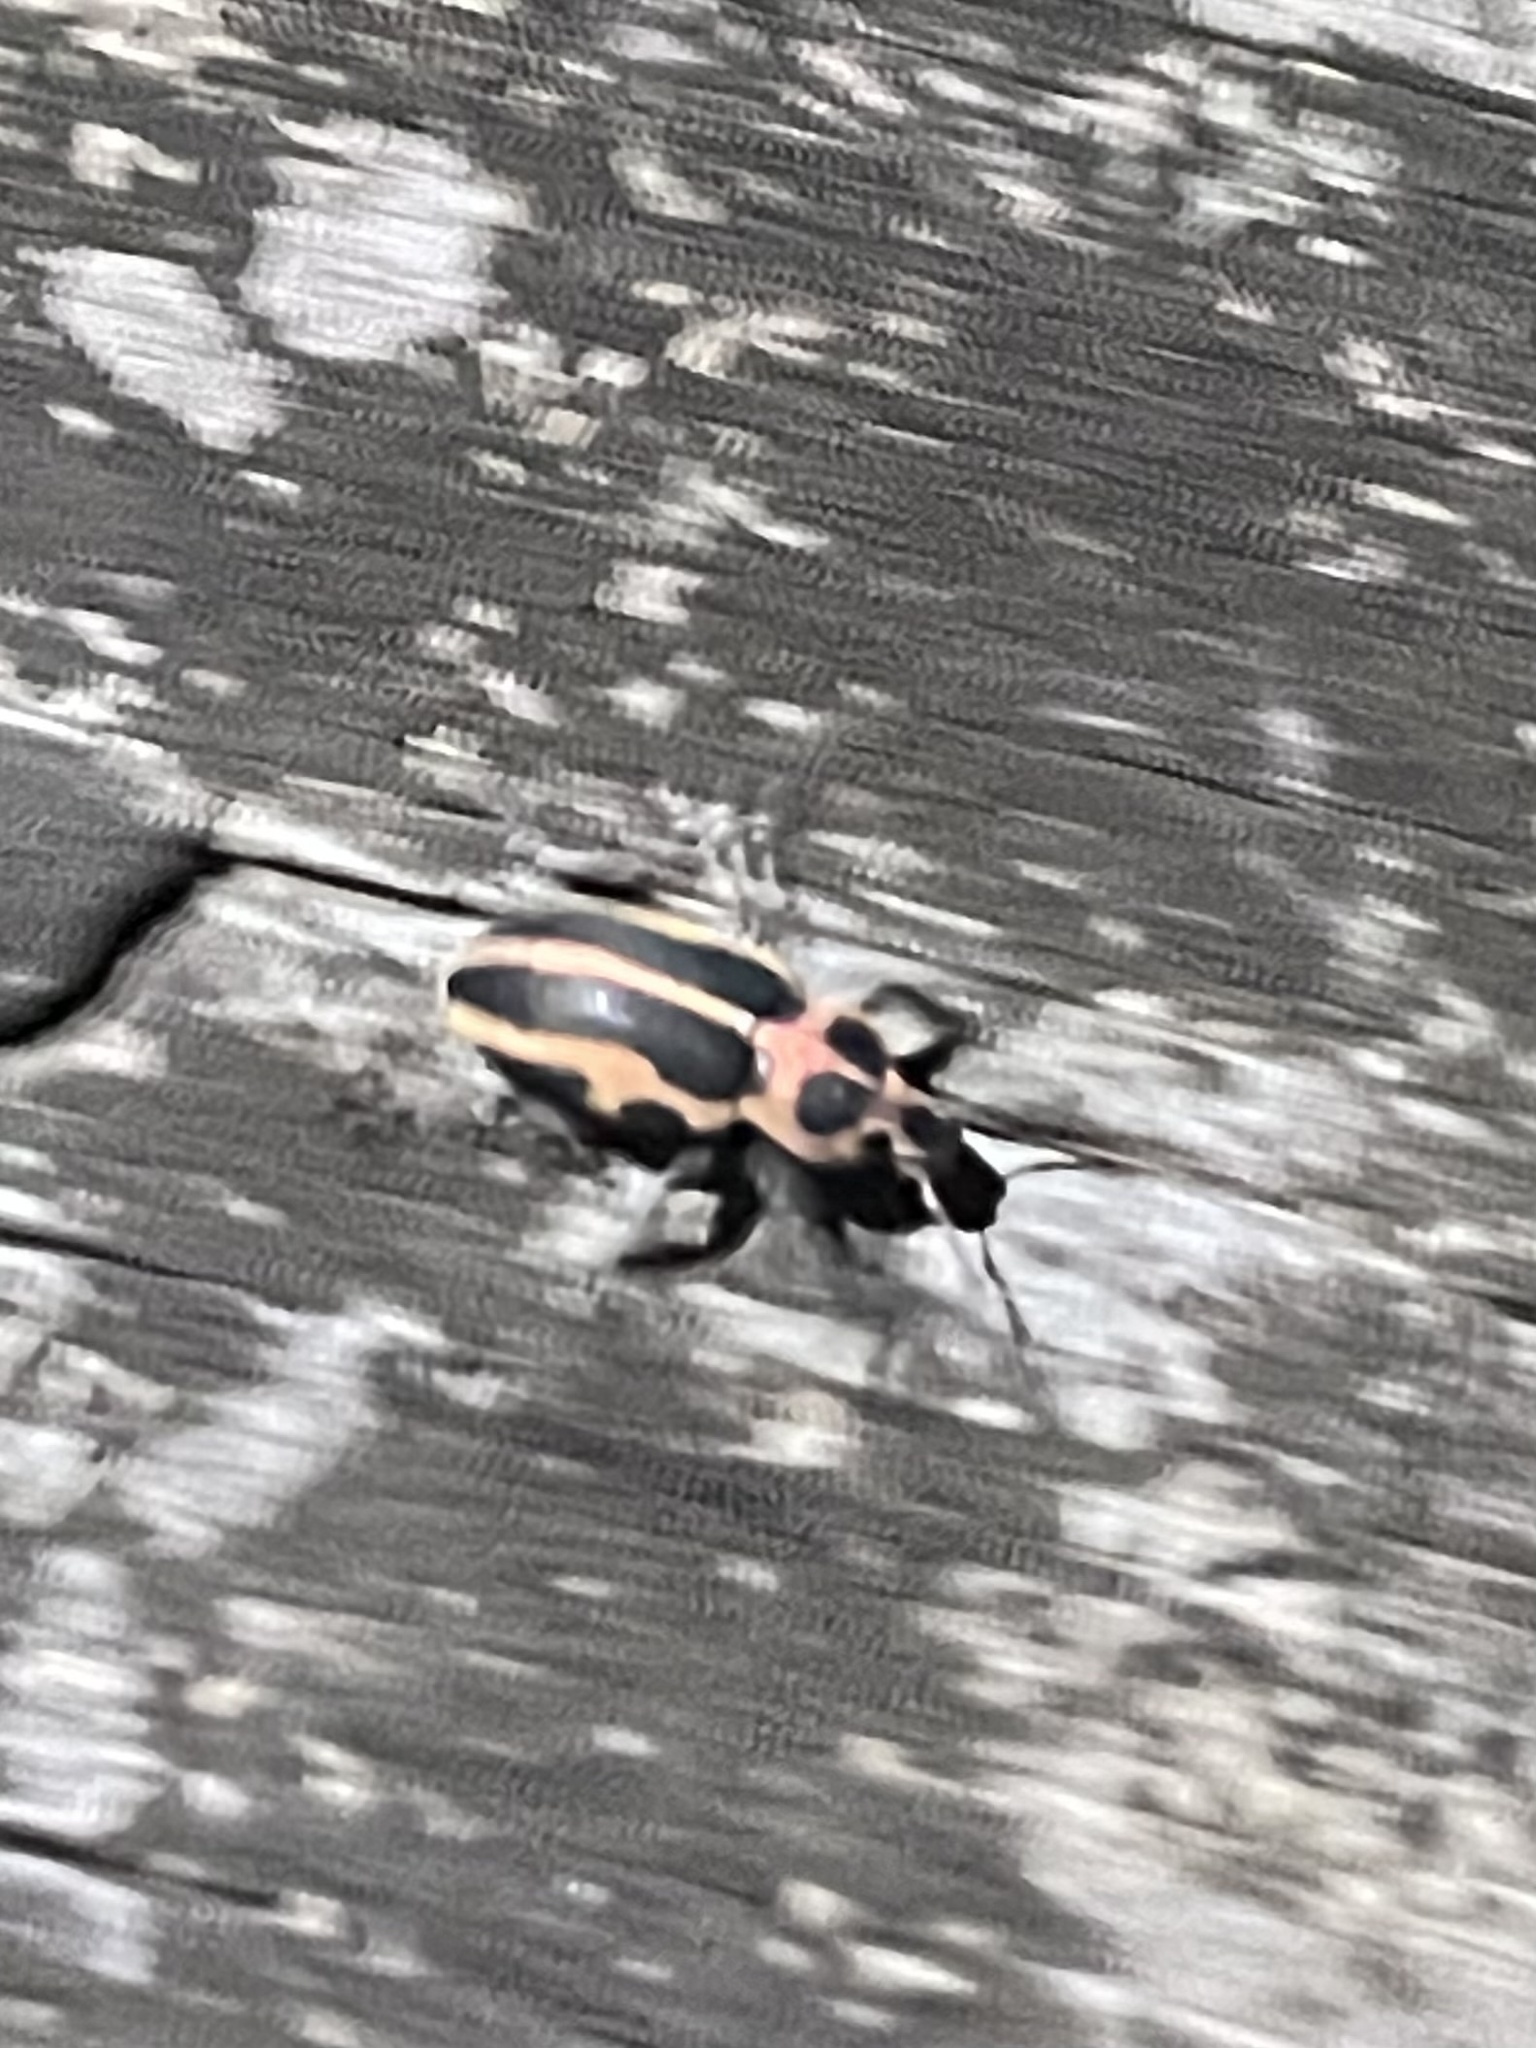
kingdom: Animalia
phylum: Arthropoda
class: Insecta
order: Coleoptera
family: Curculionidae
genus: Eudiagogus
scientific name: Eudiagogus pulcher
